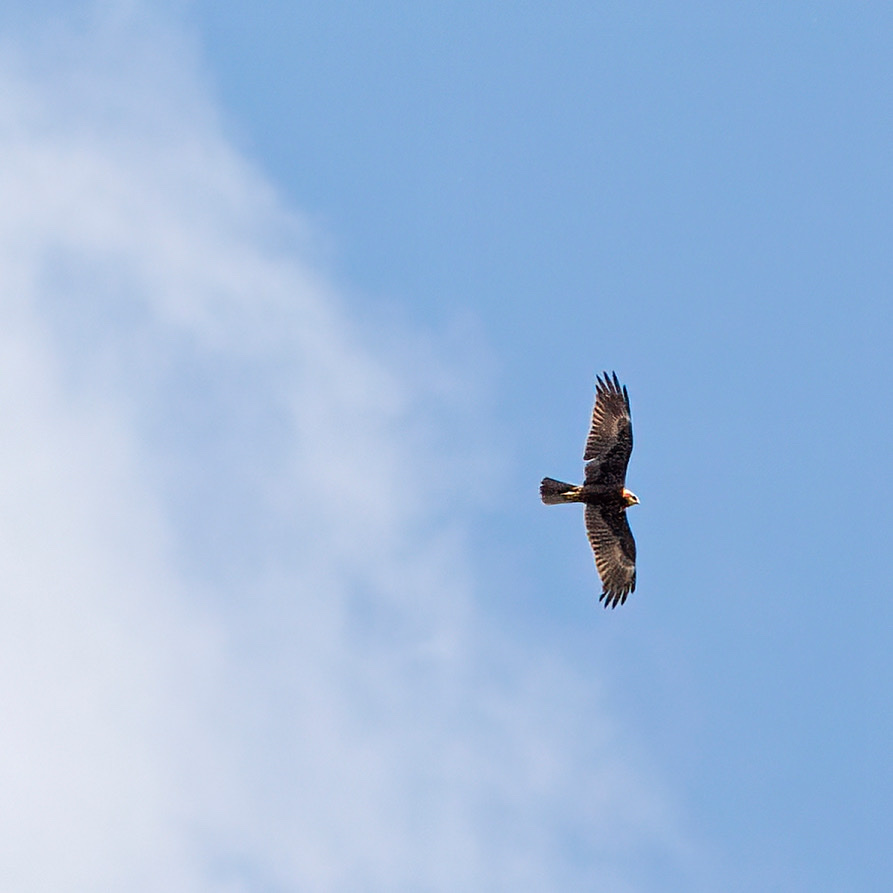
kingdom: Animalia
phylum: Chordata
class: Aves
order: Accipitriformes
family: Accipitridae
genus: Circus
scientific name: Circus aeruginosus
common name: Western marsh harrier
